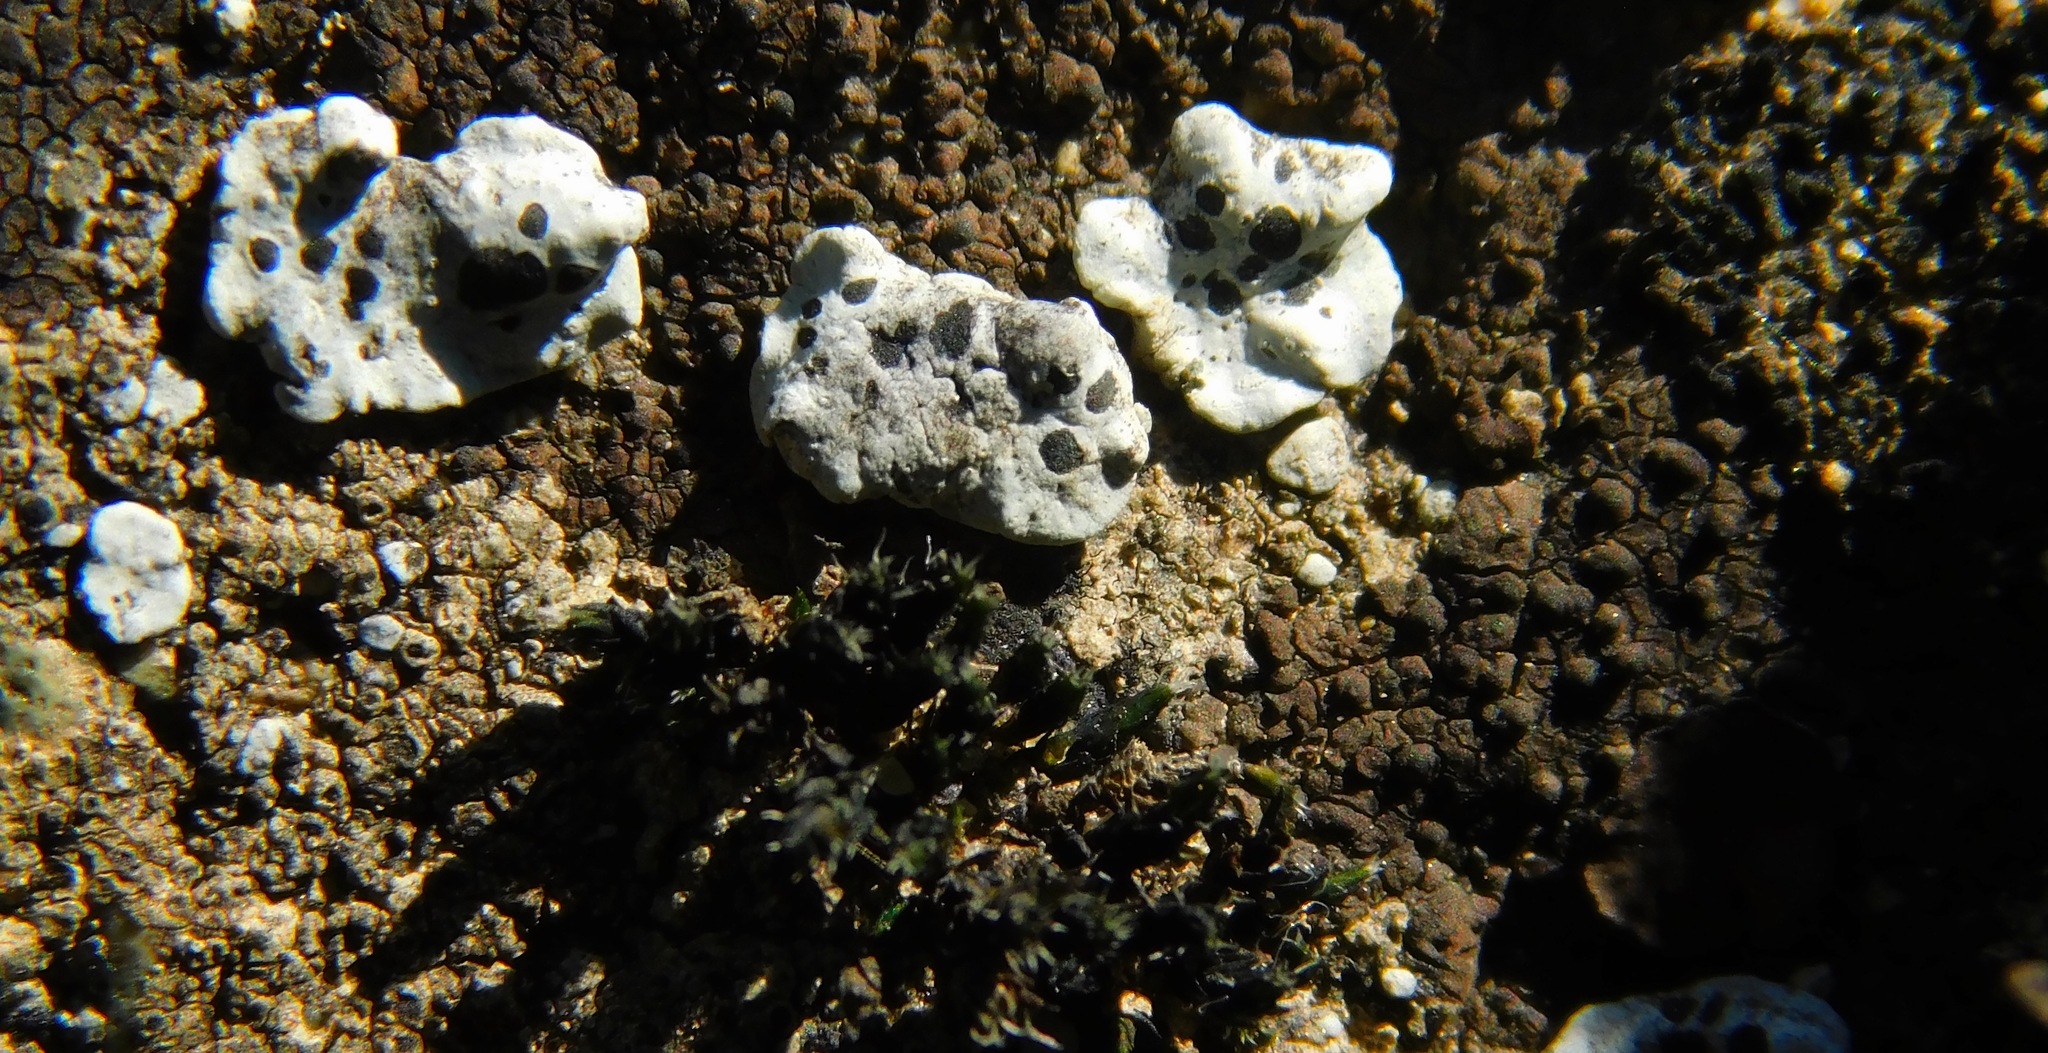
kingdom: Fungi
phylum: Ascomycota
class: Lecanoromycetes
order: Caliciales
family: Caliciaceae
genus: Dermiscellum
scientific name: Dermiscellum oulocheilum
